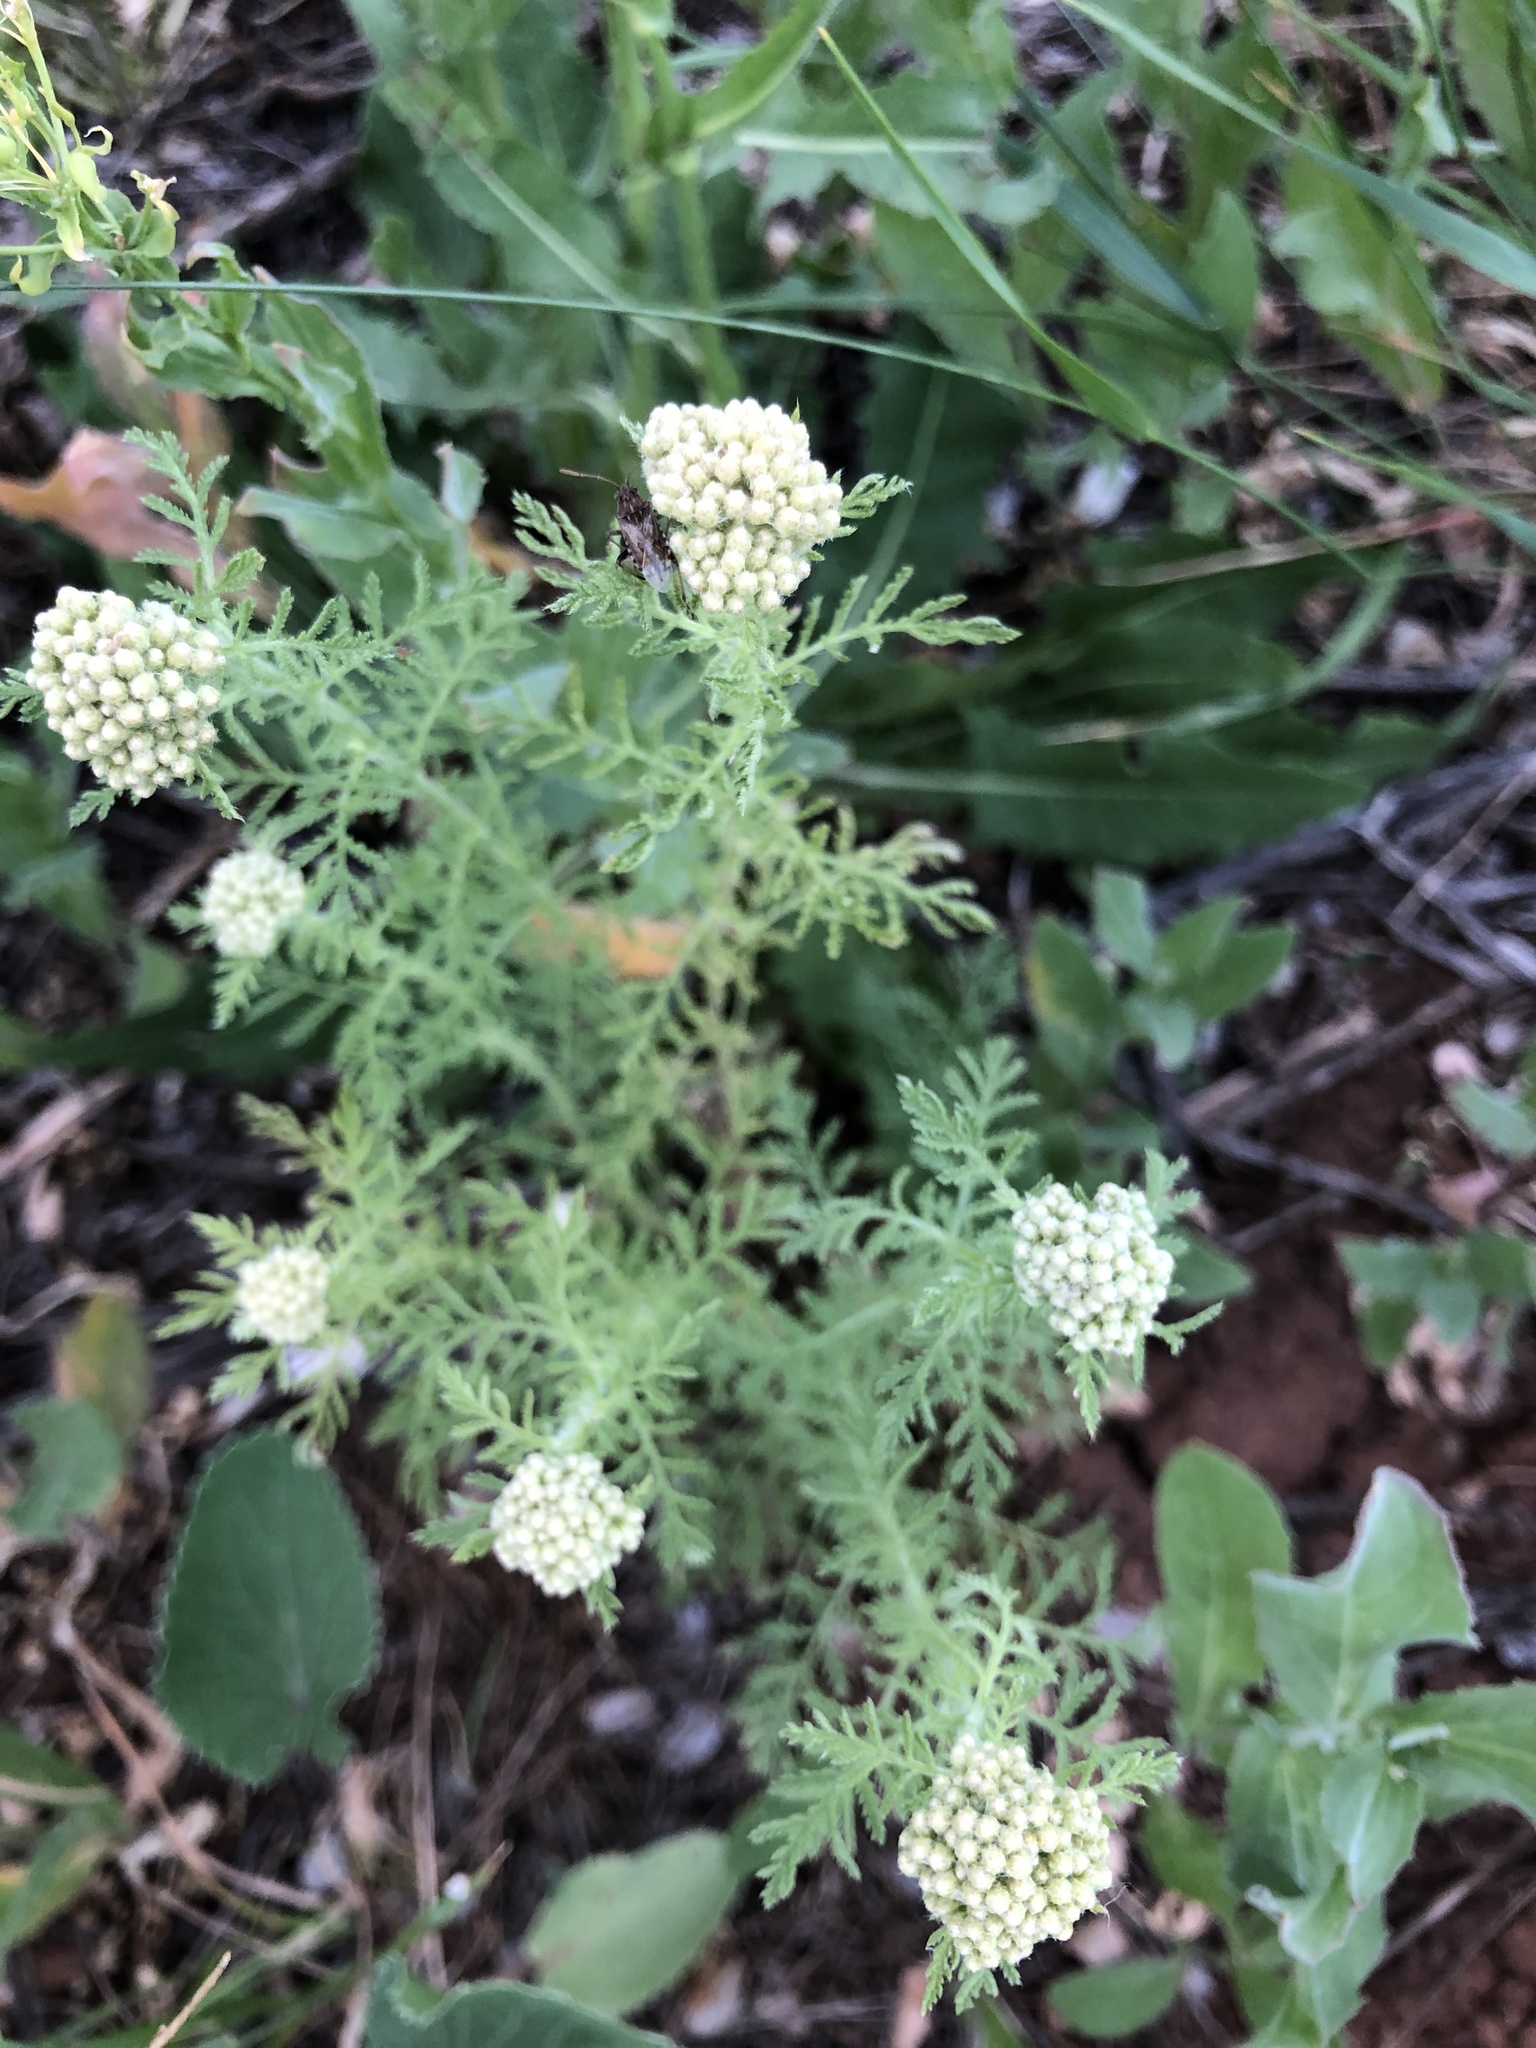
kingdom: Plantae
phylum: Tracheophyta
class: Magnoliopsida
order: Asterales
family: Asteraceae
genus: Achillea
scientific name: Achillea nobilis
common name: Noble yarrow
